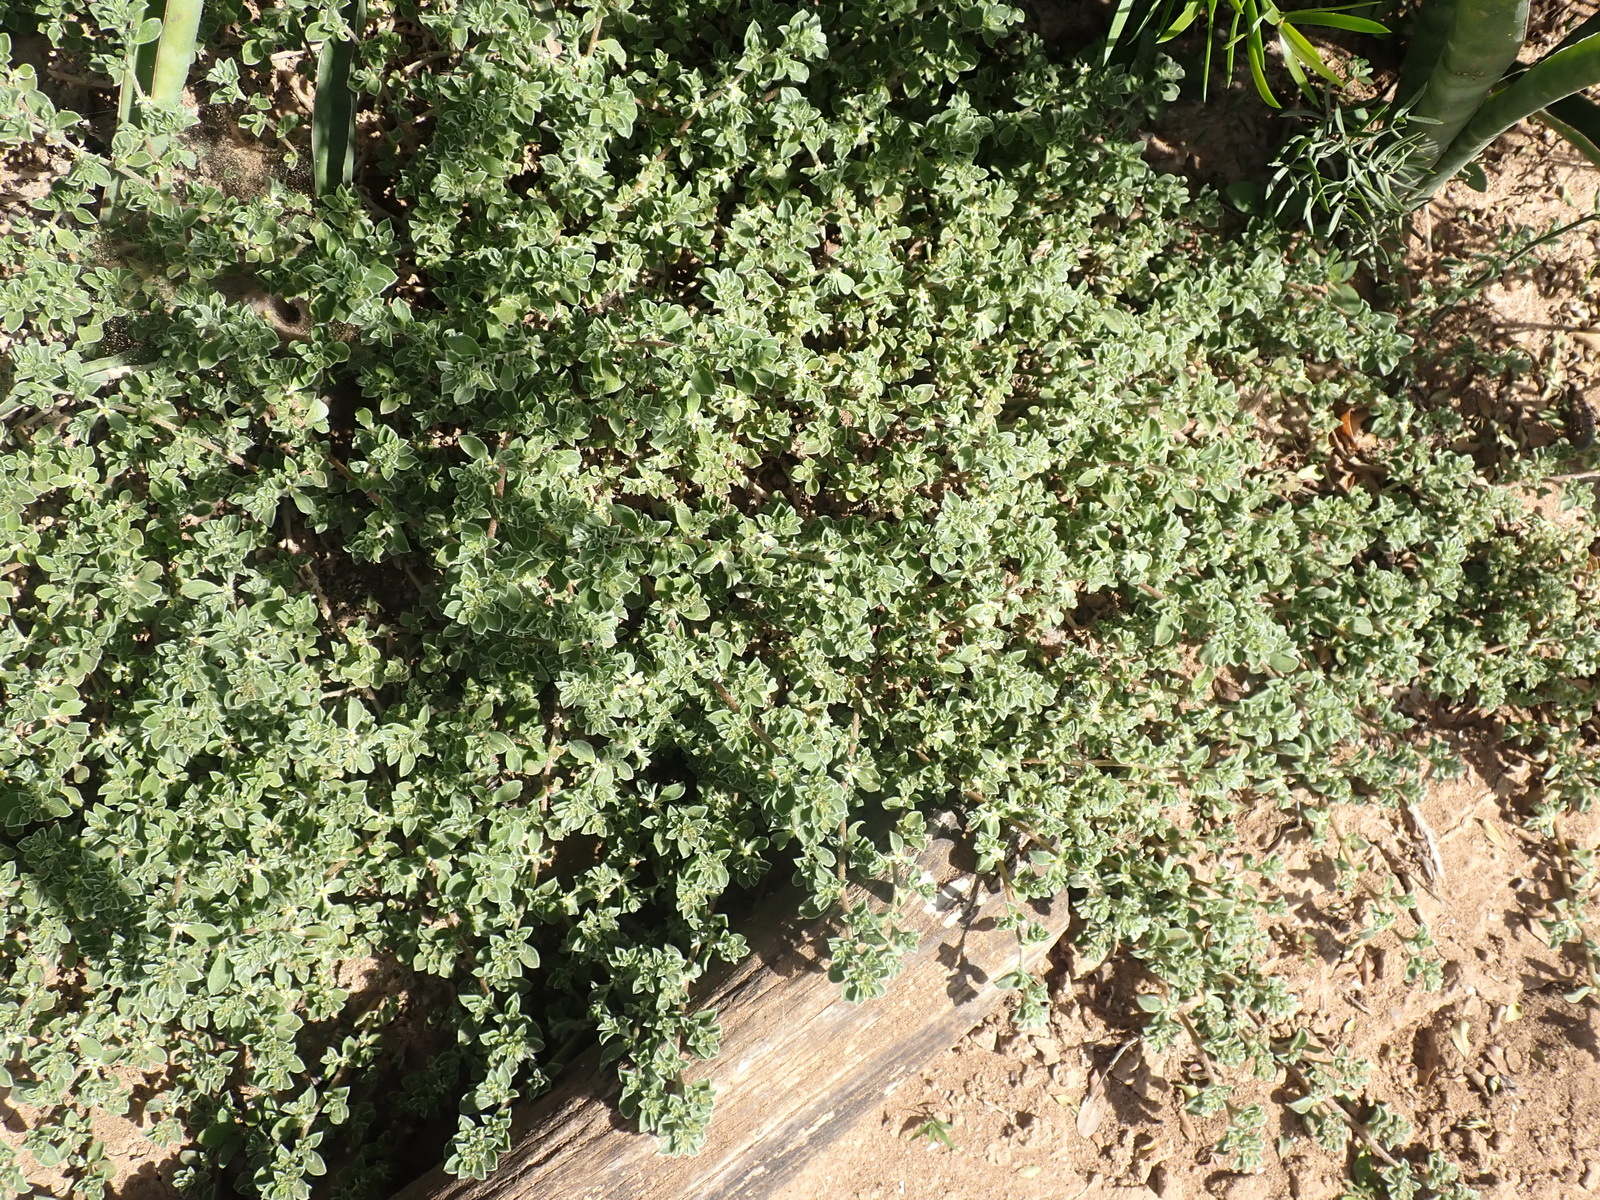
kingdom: Plantae
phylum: Tracheophyta
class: Magnoliopsida
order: Caryophyllales
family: Aizoaceae
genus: Aizoon
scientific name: Aizoon pubescens
